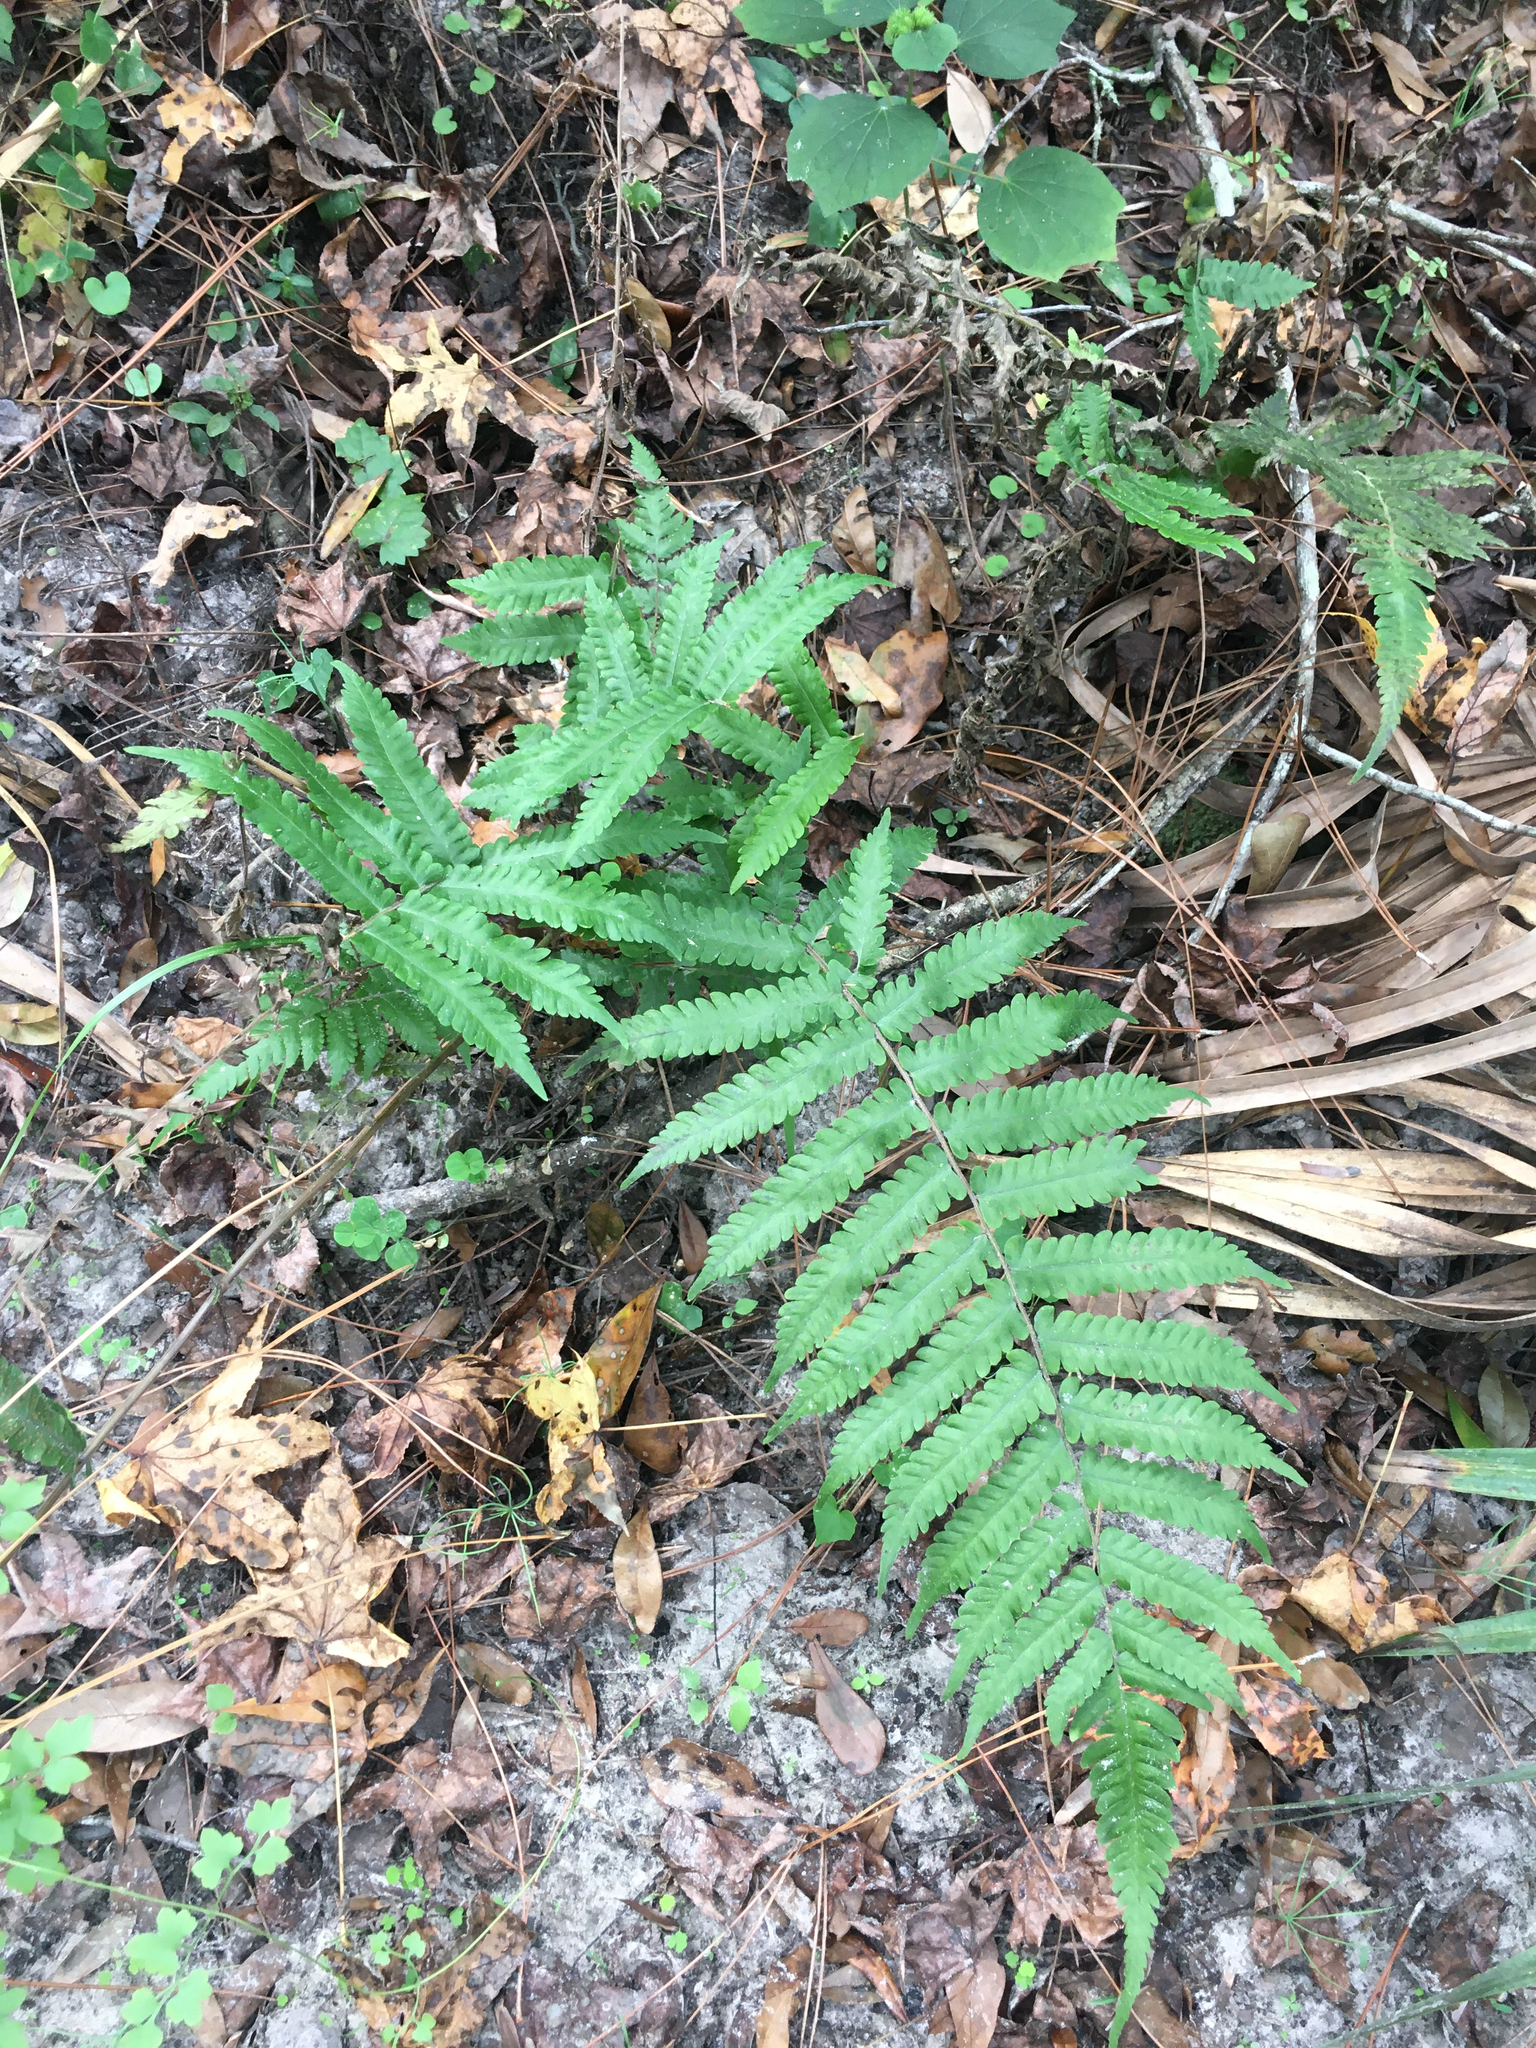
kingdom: Plantae
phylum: Tracheophyta
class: Polypodiopsida
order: Polypodiales
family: Thelypteridaceae
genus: Christella
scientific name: Christella dentata
